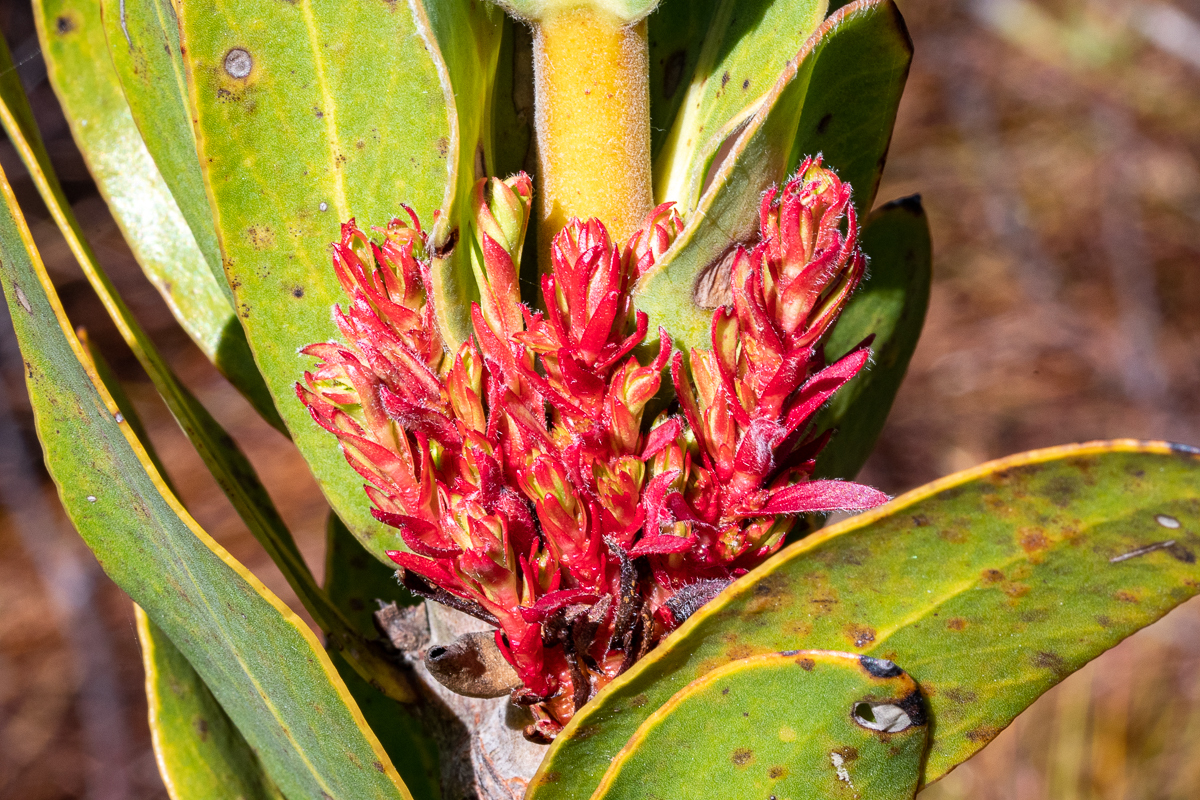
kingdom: Bacteria
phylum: Firmicutes
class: Bacilli
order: Acholeplasmatales
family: Acholeplasmataceae
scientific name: Acholeplasmataceae
